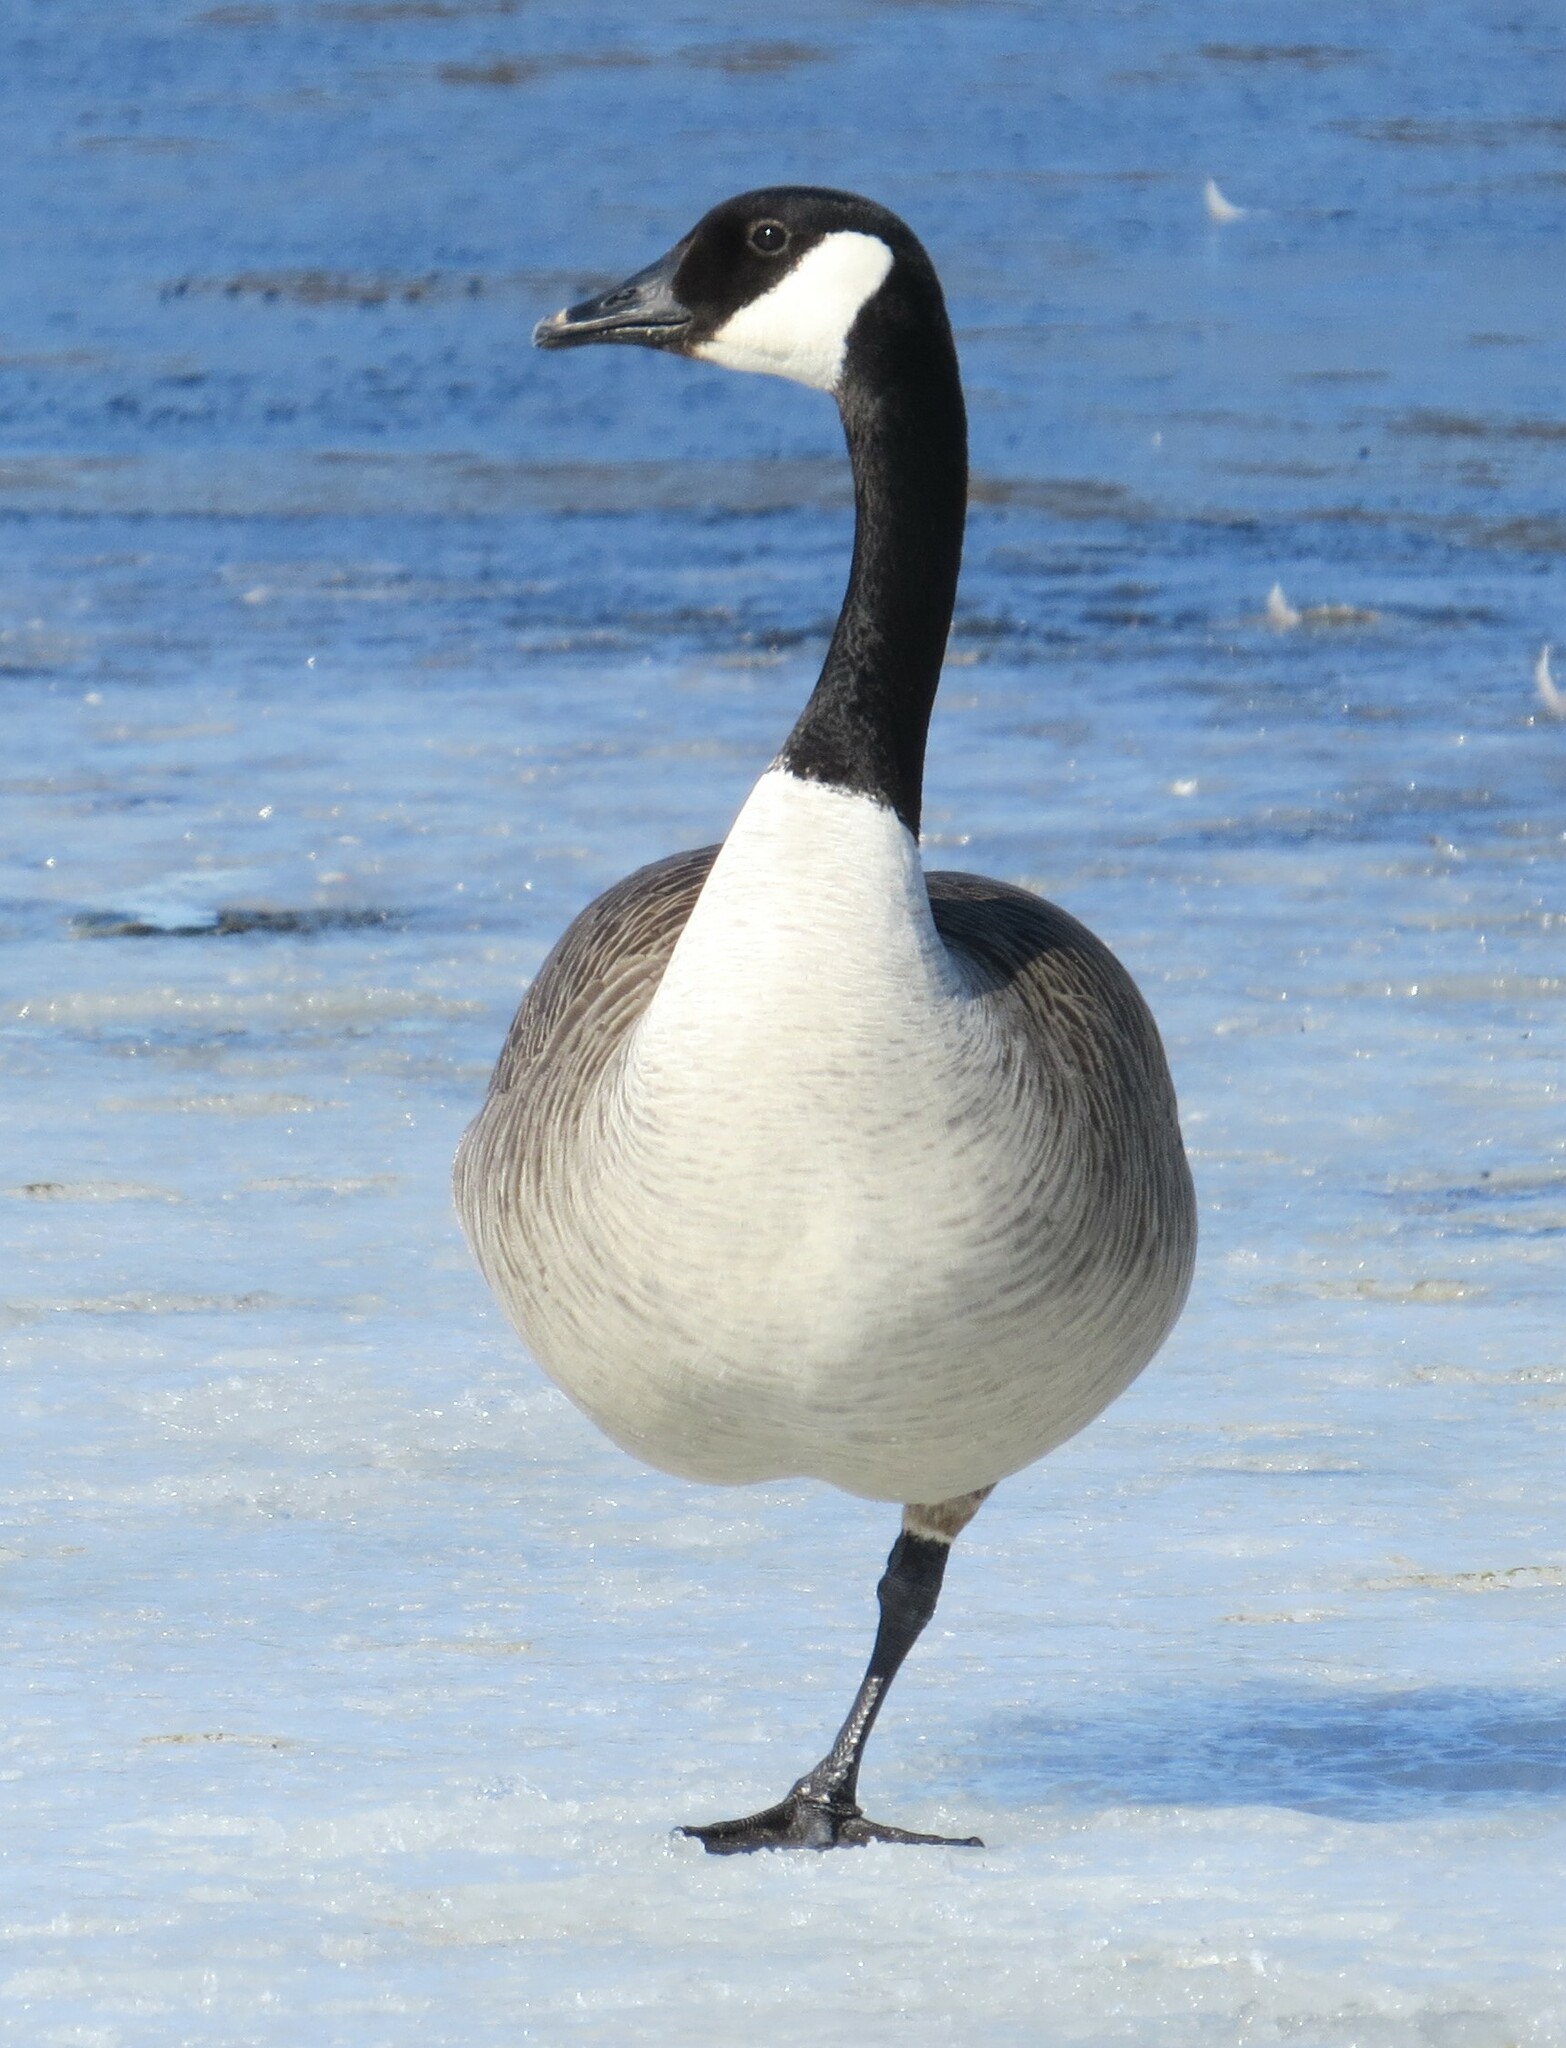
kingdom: Animalia
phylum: Chordata
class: Aves
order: Anseriformes
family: Anatidae
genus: Branta
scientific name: Branta canadensis
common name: Canada goose
